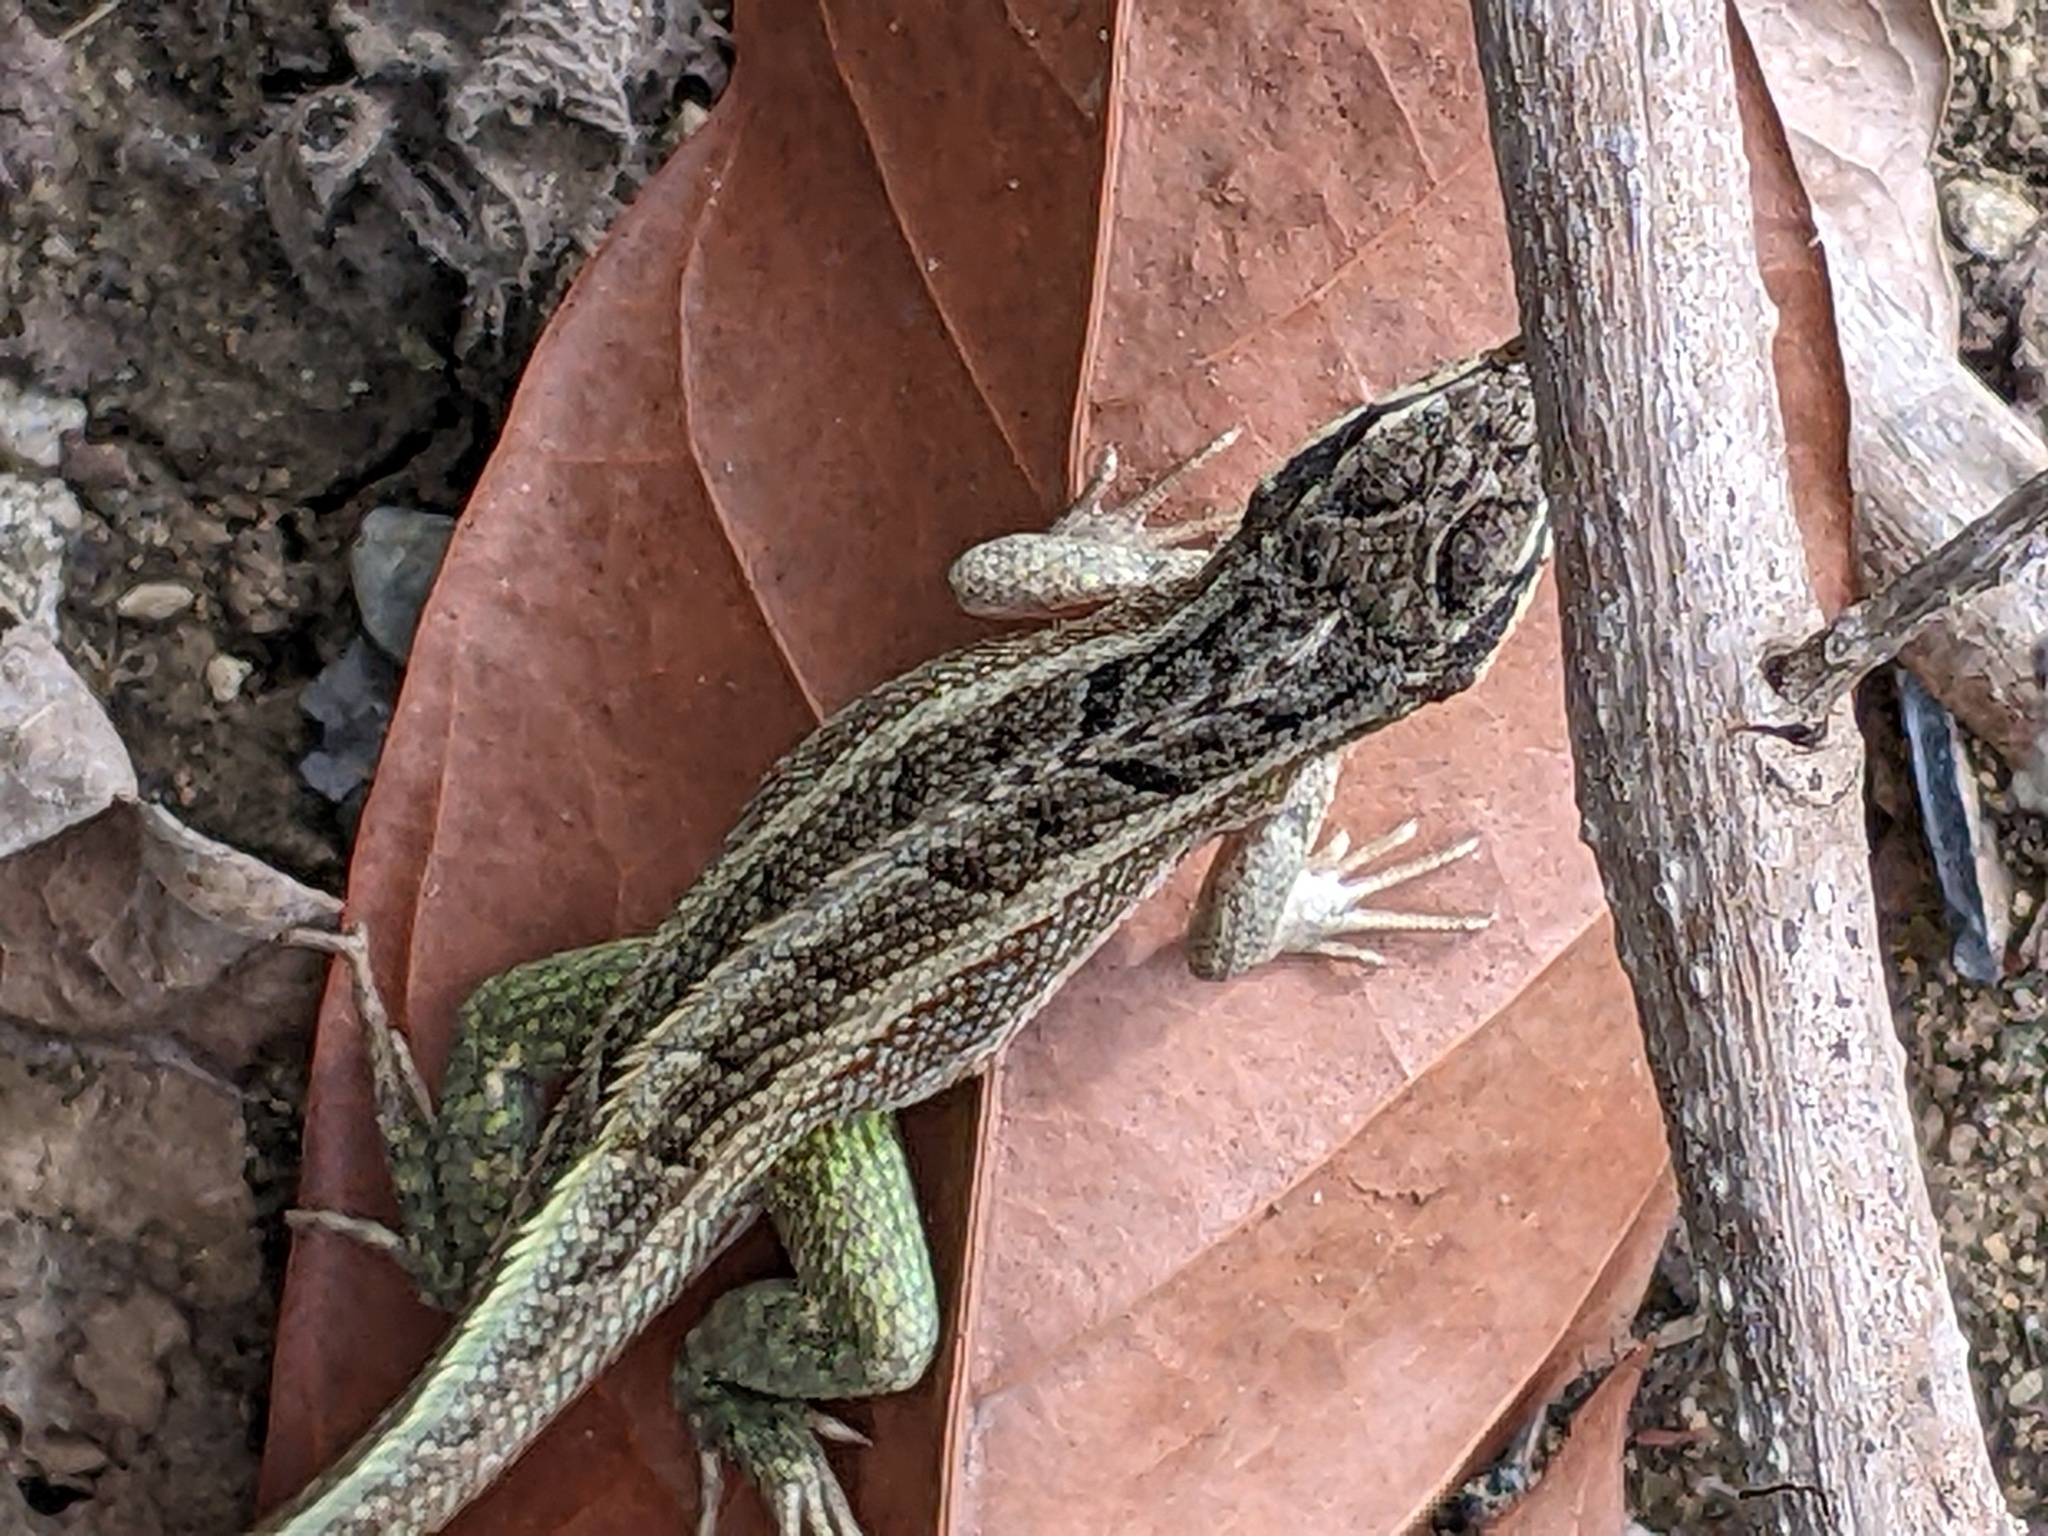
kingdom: Animalia
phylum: Chordata
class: Squamata
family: Leiocephalidae
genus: Leiocephalus
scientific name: Leiocephalus personatus
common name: Haitian curlytail lizard
